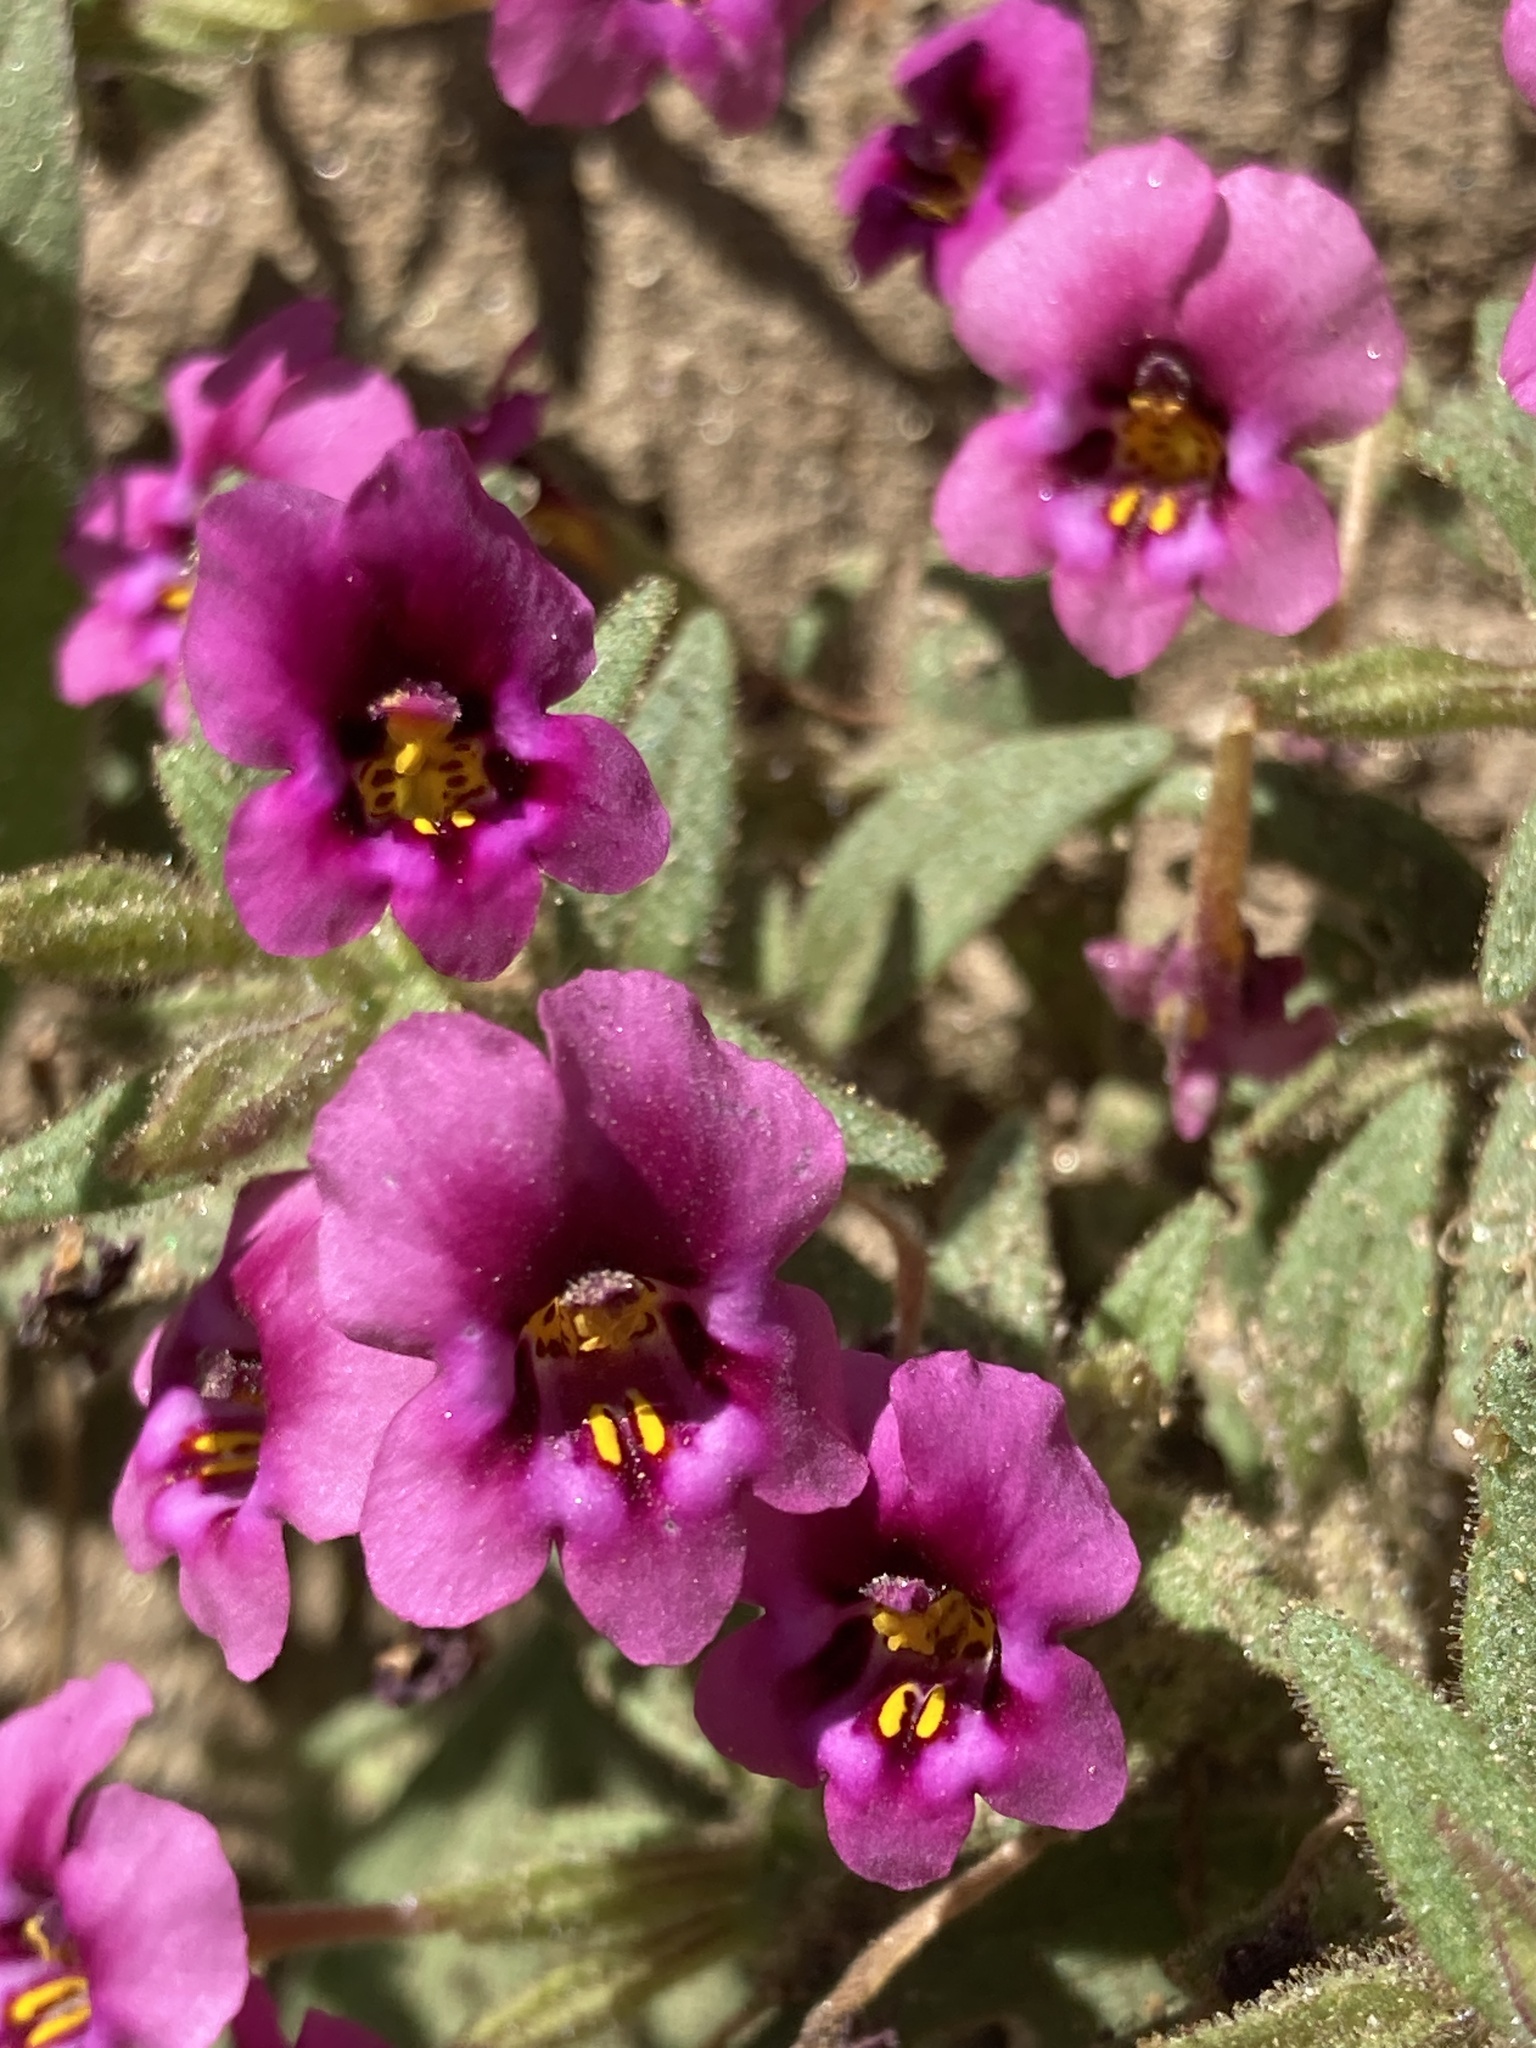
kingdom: Plantae
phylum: Tracheophyta
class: Magnoliopsida
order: Lamiales
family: Phrymaceae
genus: Diplacus
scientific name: Diplacus kelloggii
